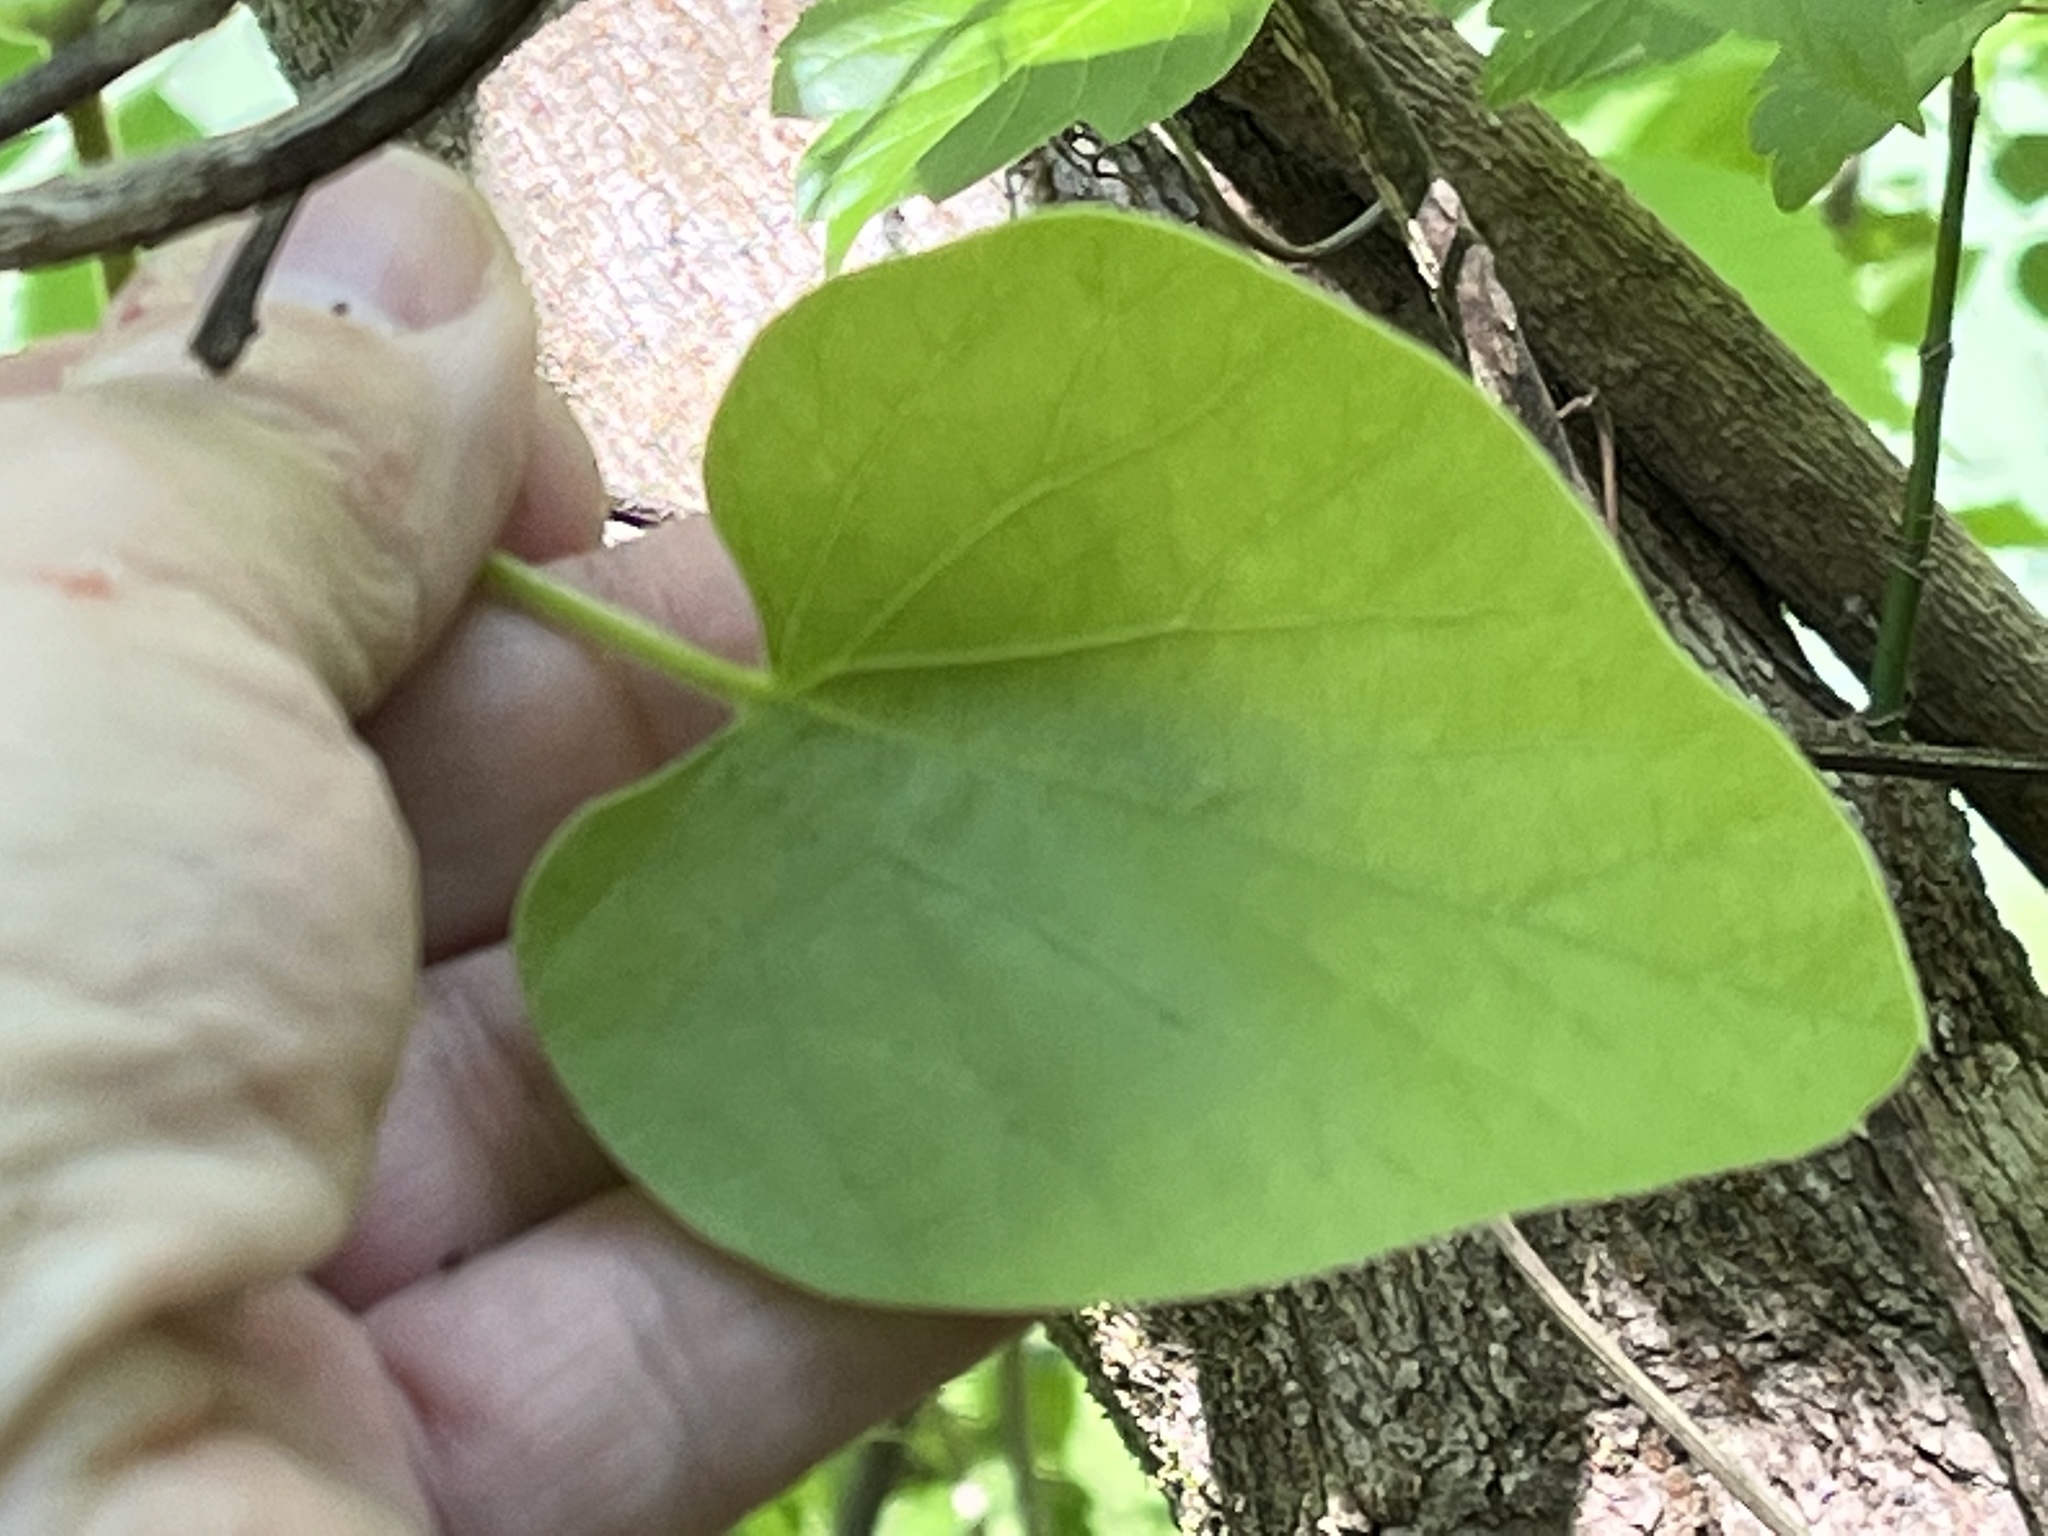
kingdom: Plantae
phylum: Tracheophyta
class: Magnoliopsida
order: Piperales
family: Aristolochiaceae
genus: Isotrema
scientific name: Isotrema tomentosum
